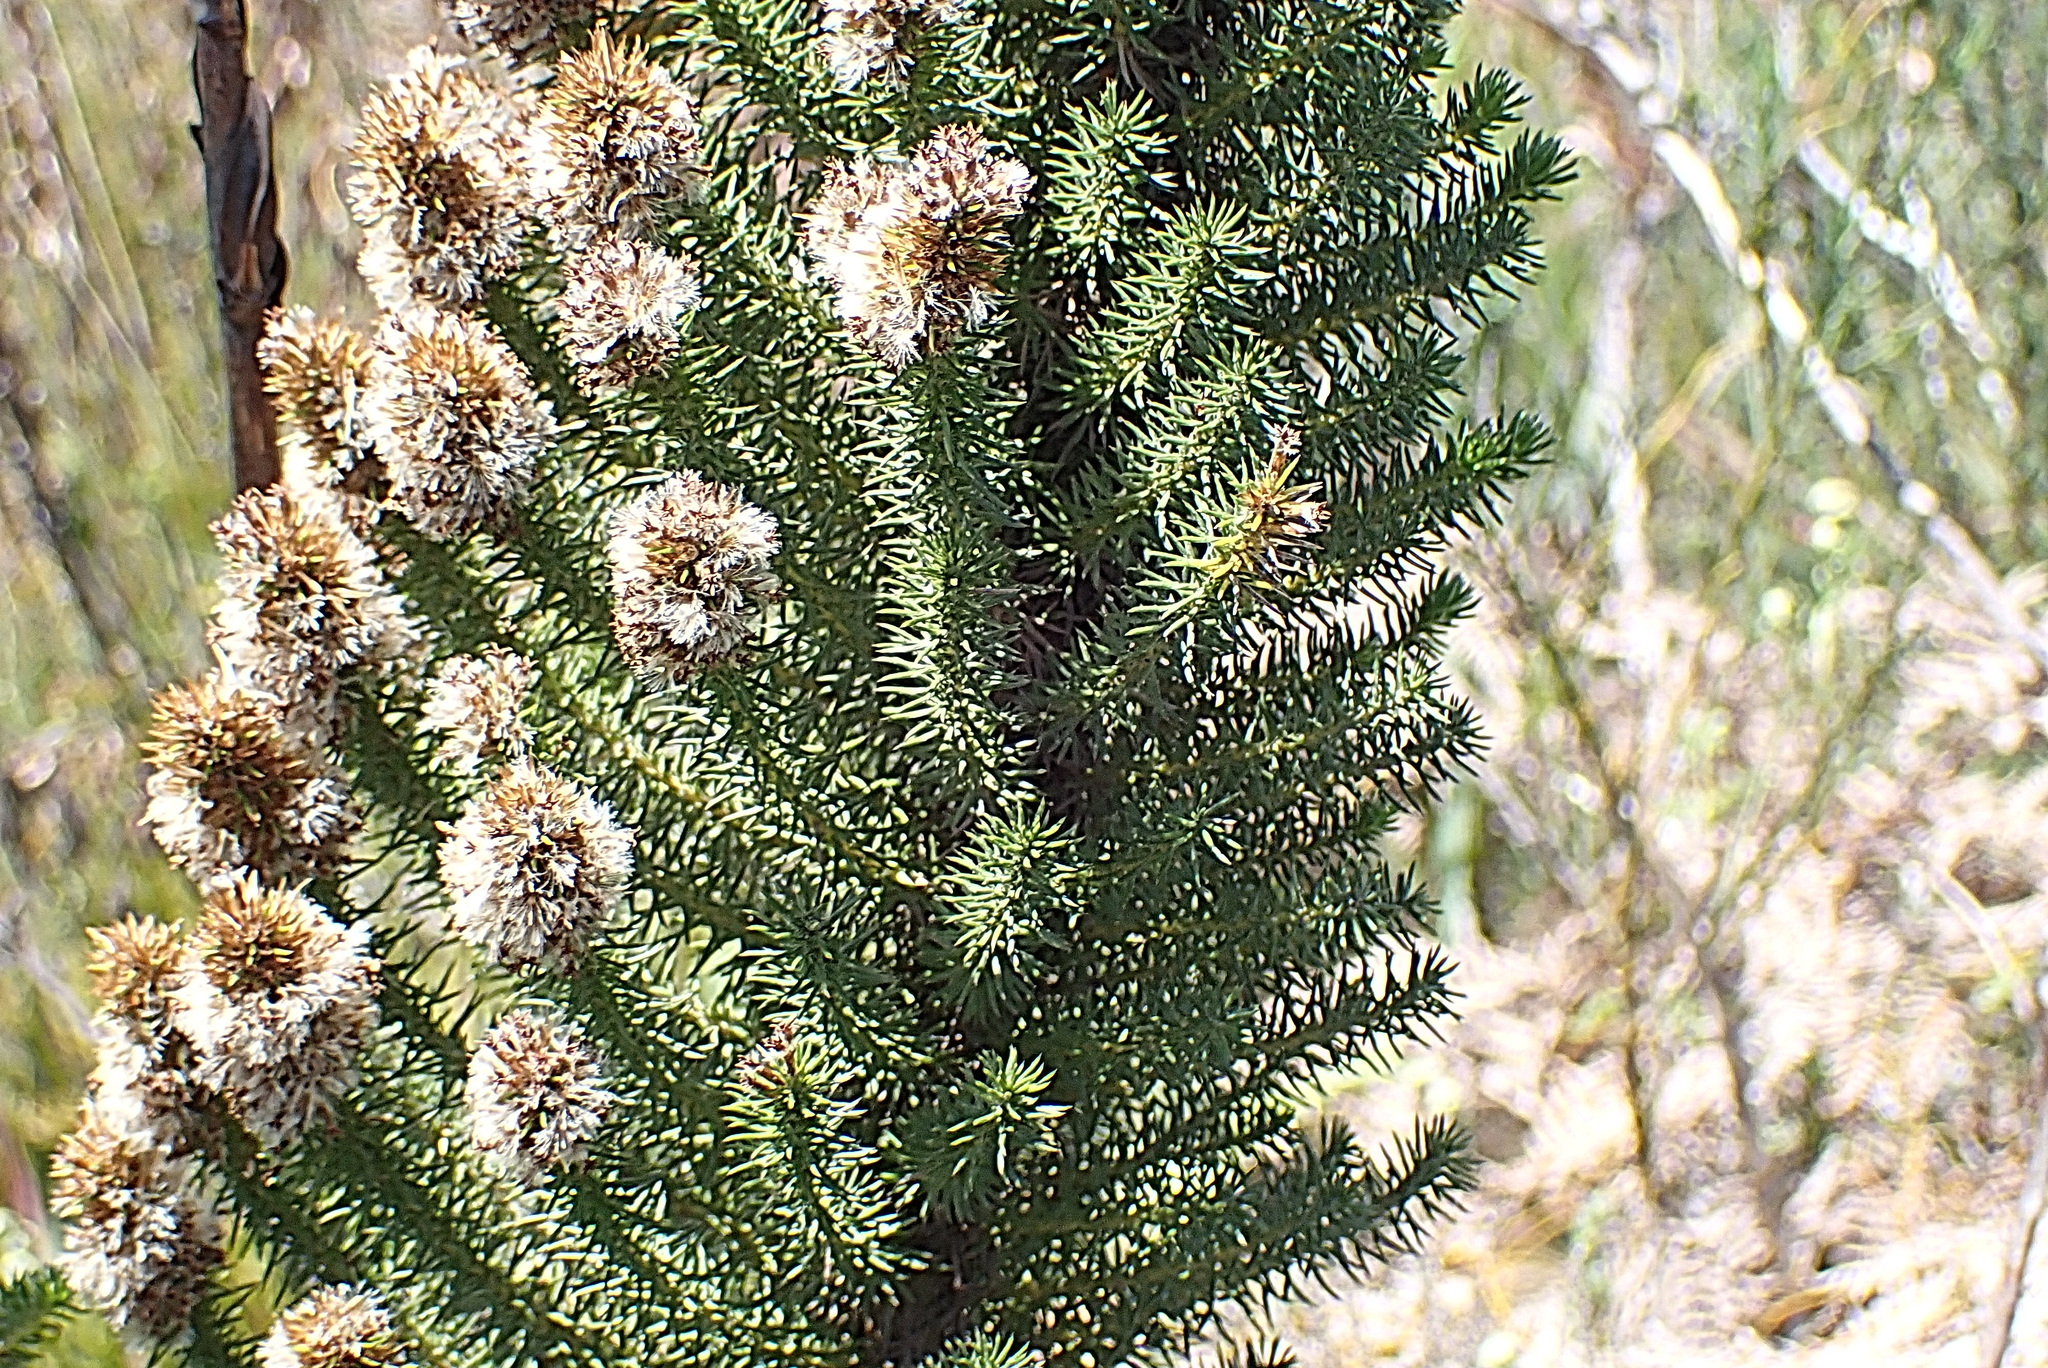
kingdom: Plantae
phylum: Tracheophyta
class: Magnoliopsida
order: Asterales
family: Asteraceae
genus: Stoebe
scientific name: Stoebe alopecuroides
